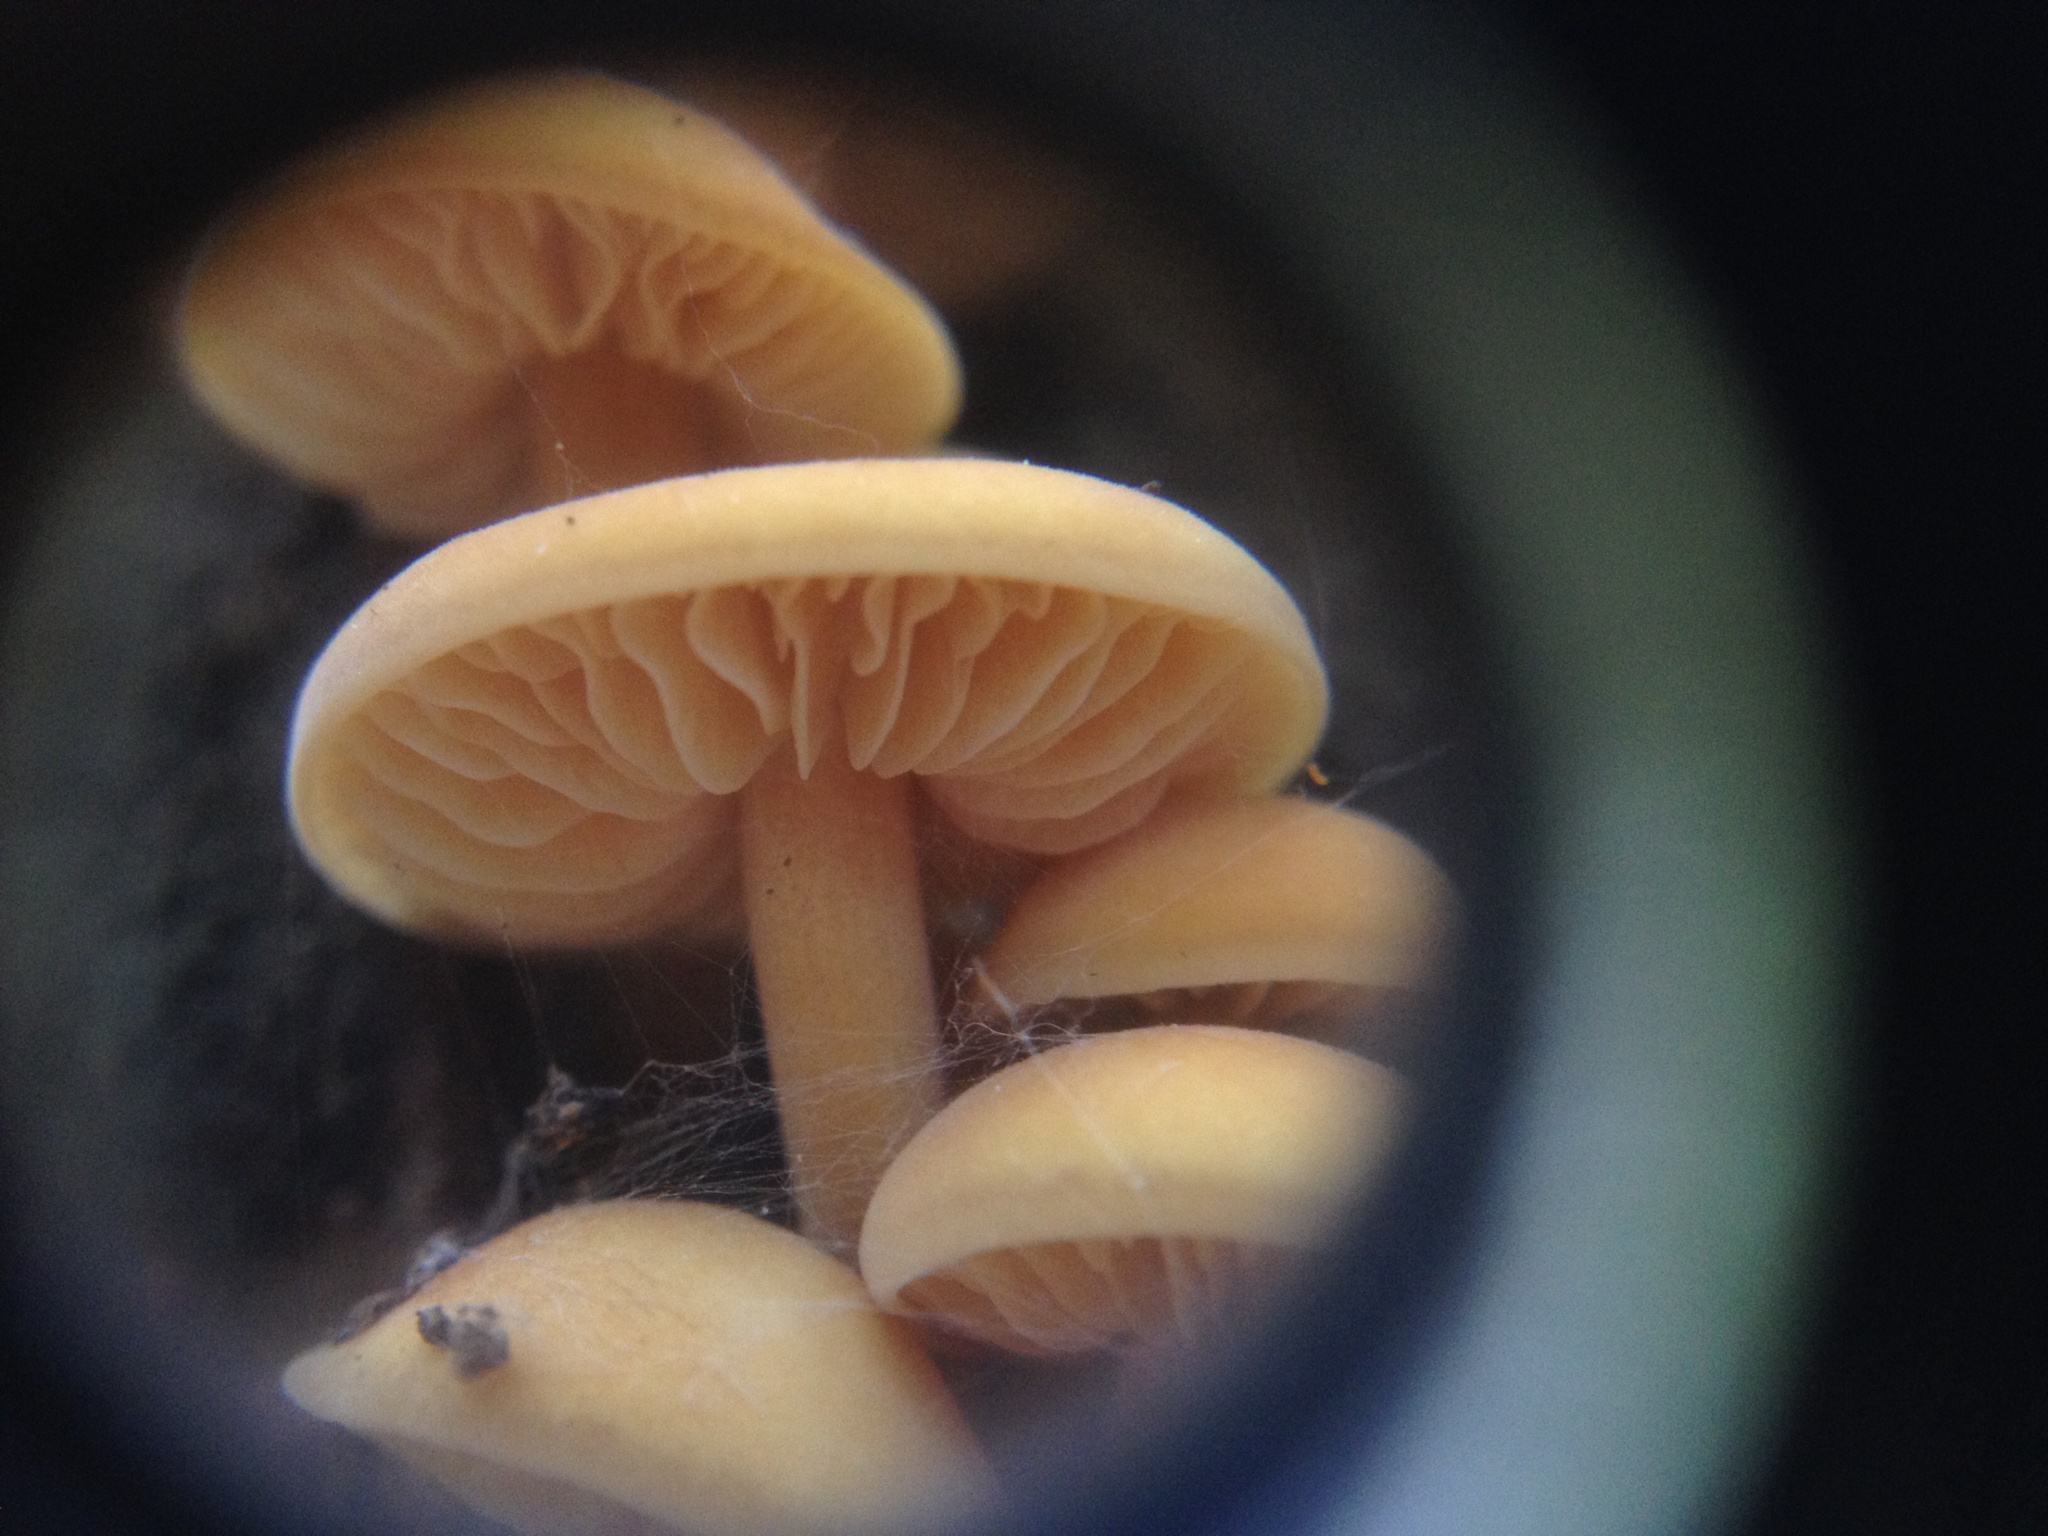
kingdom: Fungi
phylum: Basidiomycota
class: Agaricomycetes
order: Agaricales
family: Physalacriaceae
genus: Flammulina
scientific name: Flammulina velutipes
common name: Velvet shank
